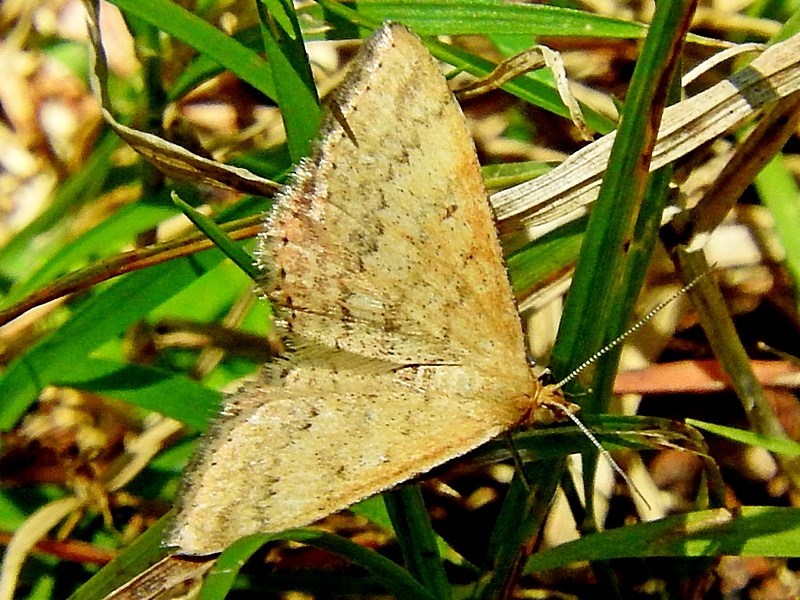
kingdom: Animalia
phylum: Arthropoda
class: Insecta
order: Lepidoptera
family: Geometridae
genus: Scopula
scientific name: Scopula rubraria
